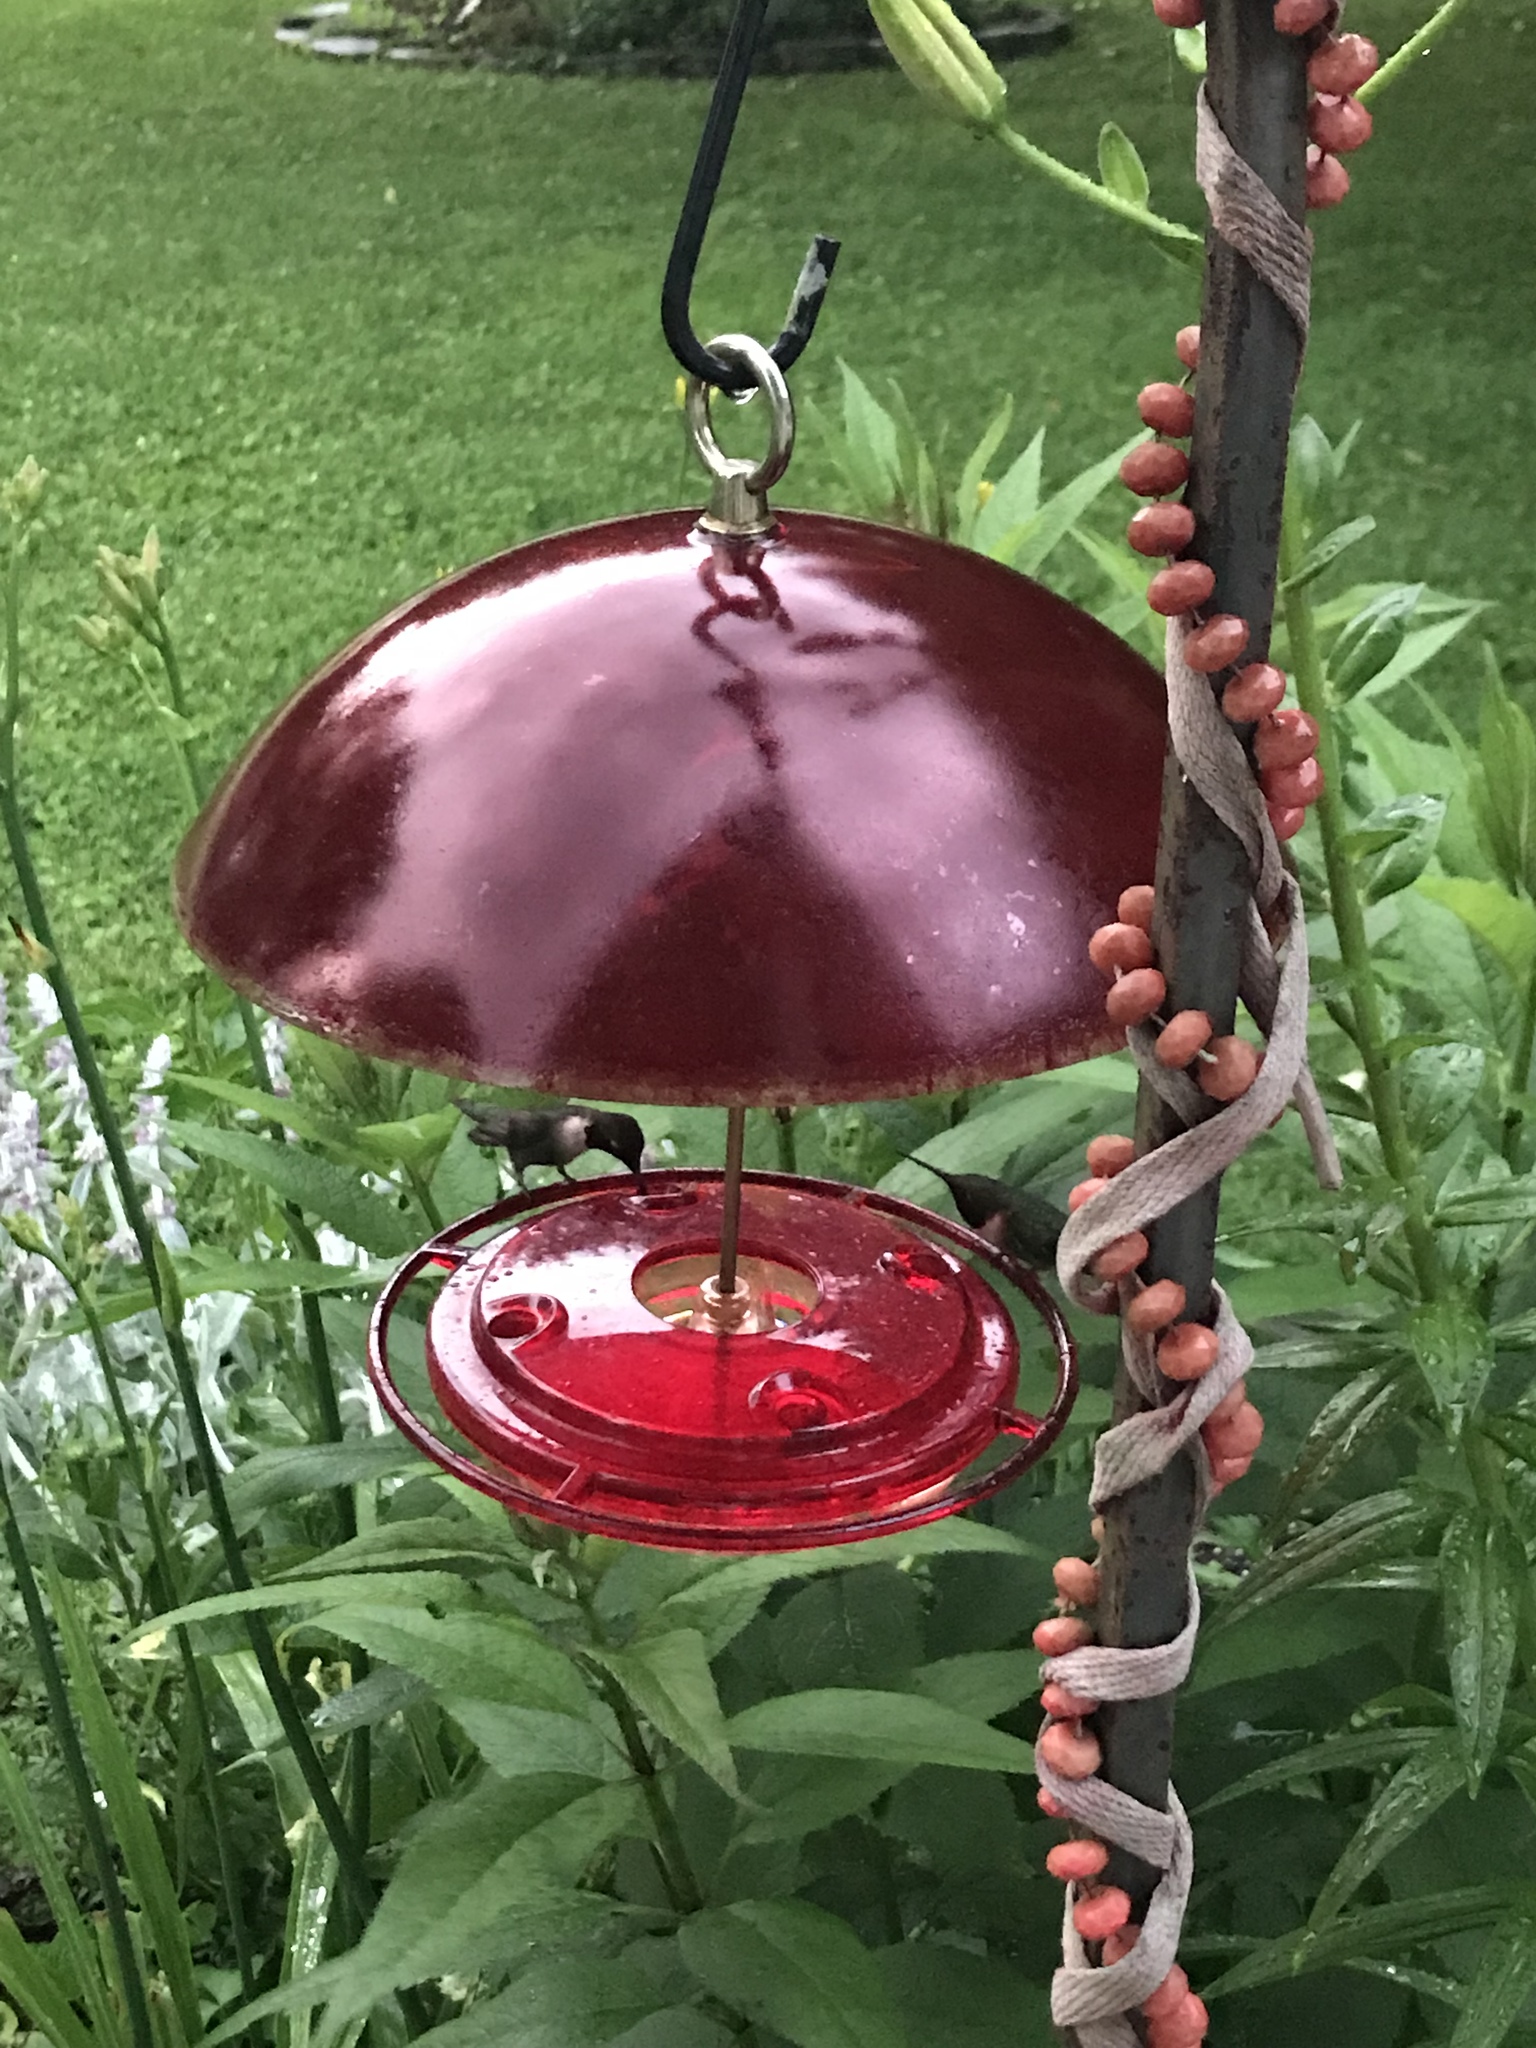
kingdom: Animalia
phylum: Chordata
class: Aves
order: Apodiformes
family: Trochilidae
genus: Archilochus
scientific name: Archilochus colubris
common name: Ruby-throated hummingbird
